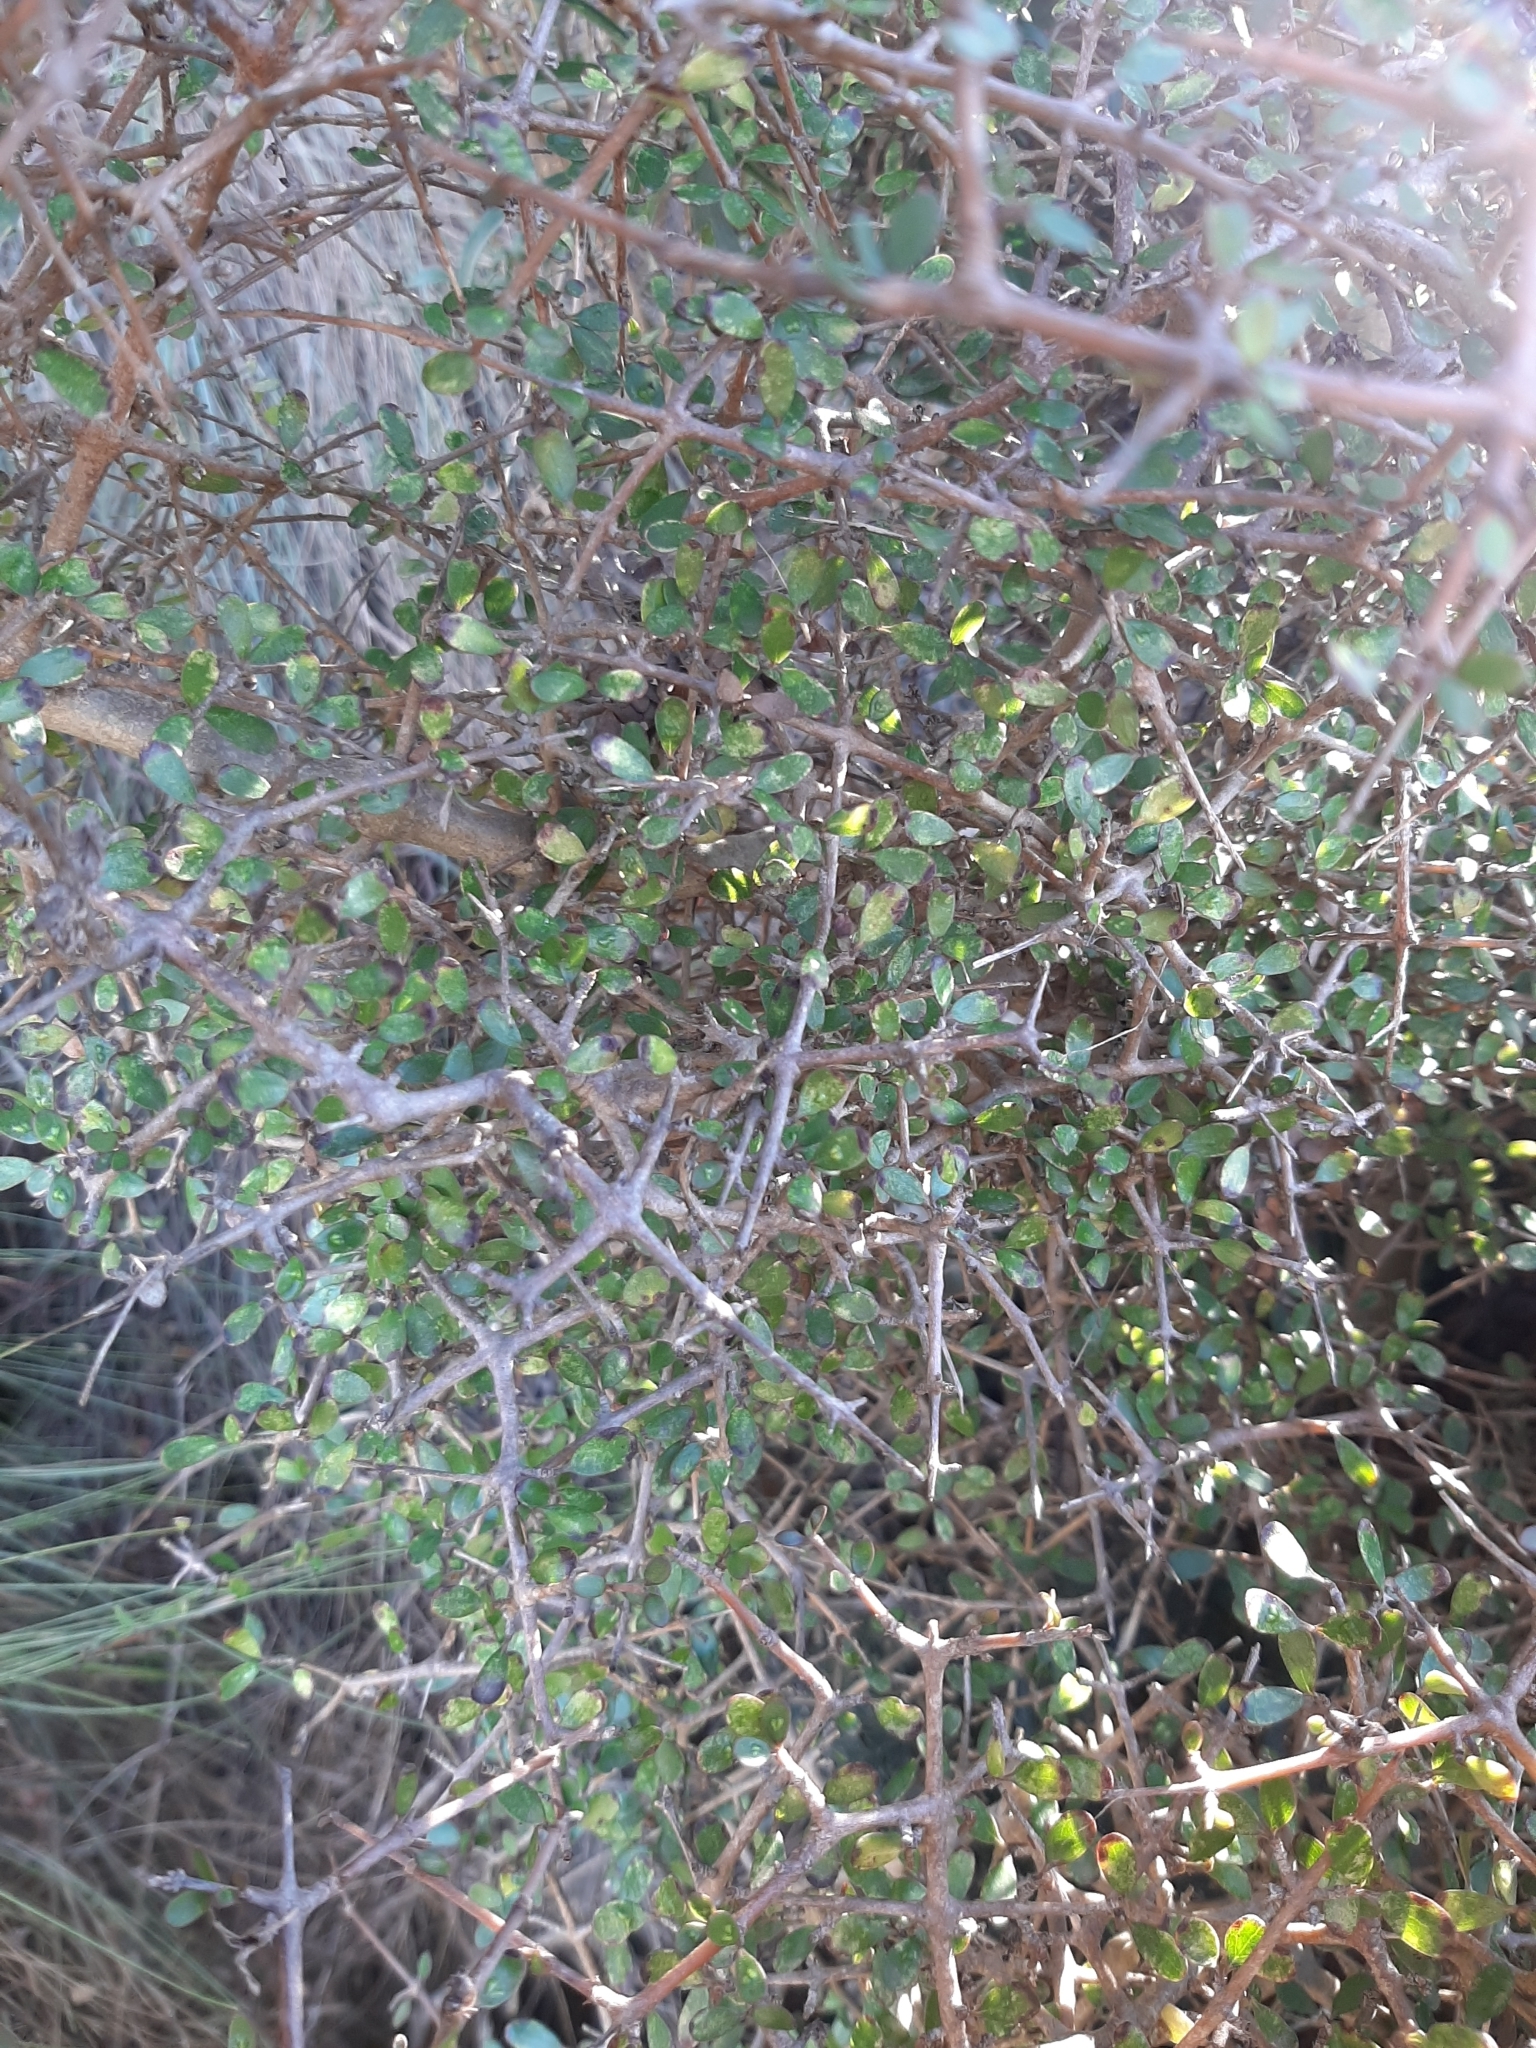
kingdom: Plantae
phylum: Tracheophyta
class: Magnoliopsida
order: Gentianales
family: Rubiaceae
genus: Coprosma
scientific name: Coprosma propinqua
